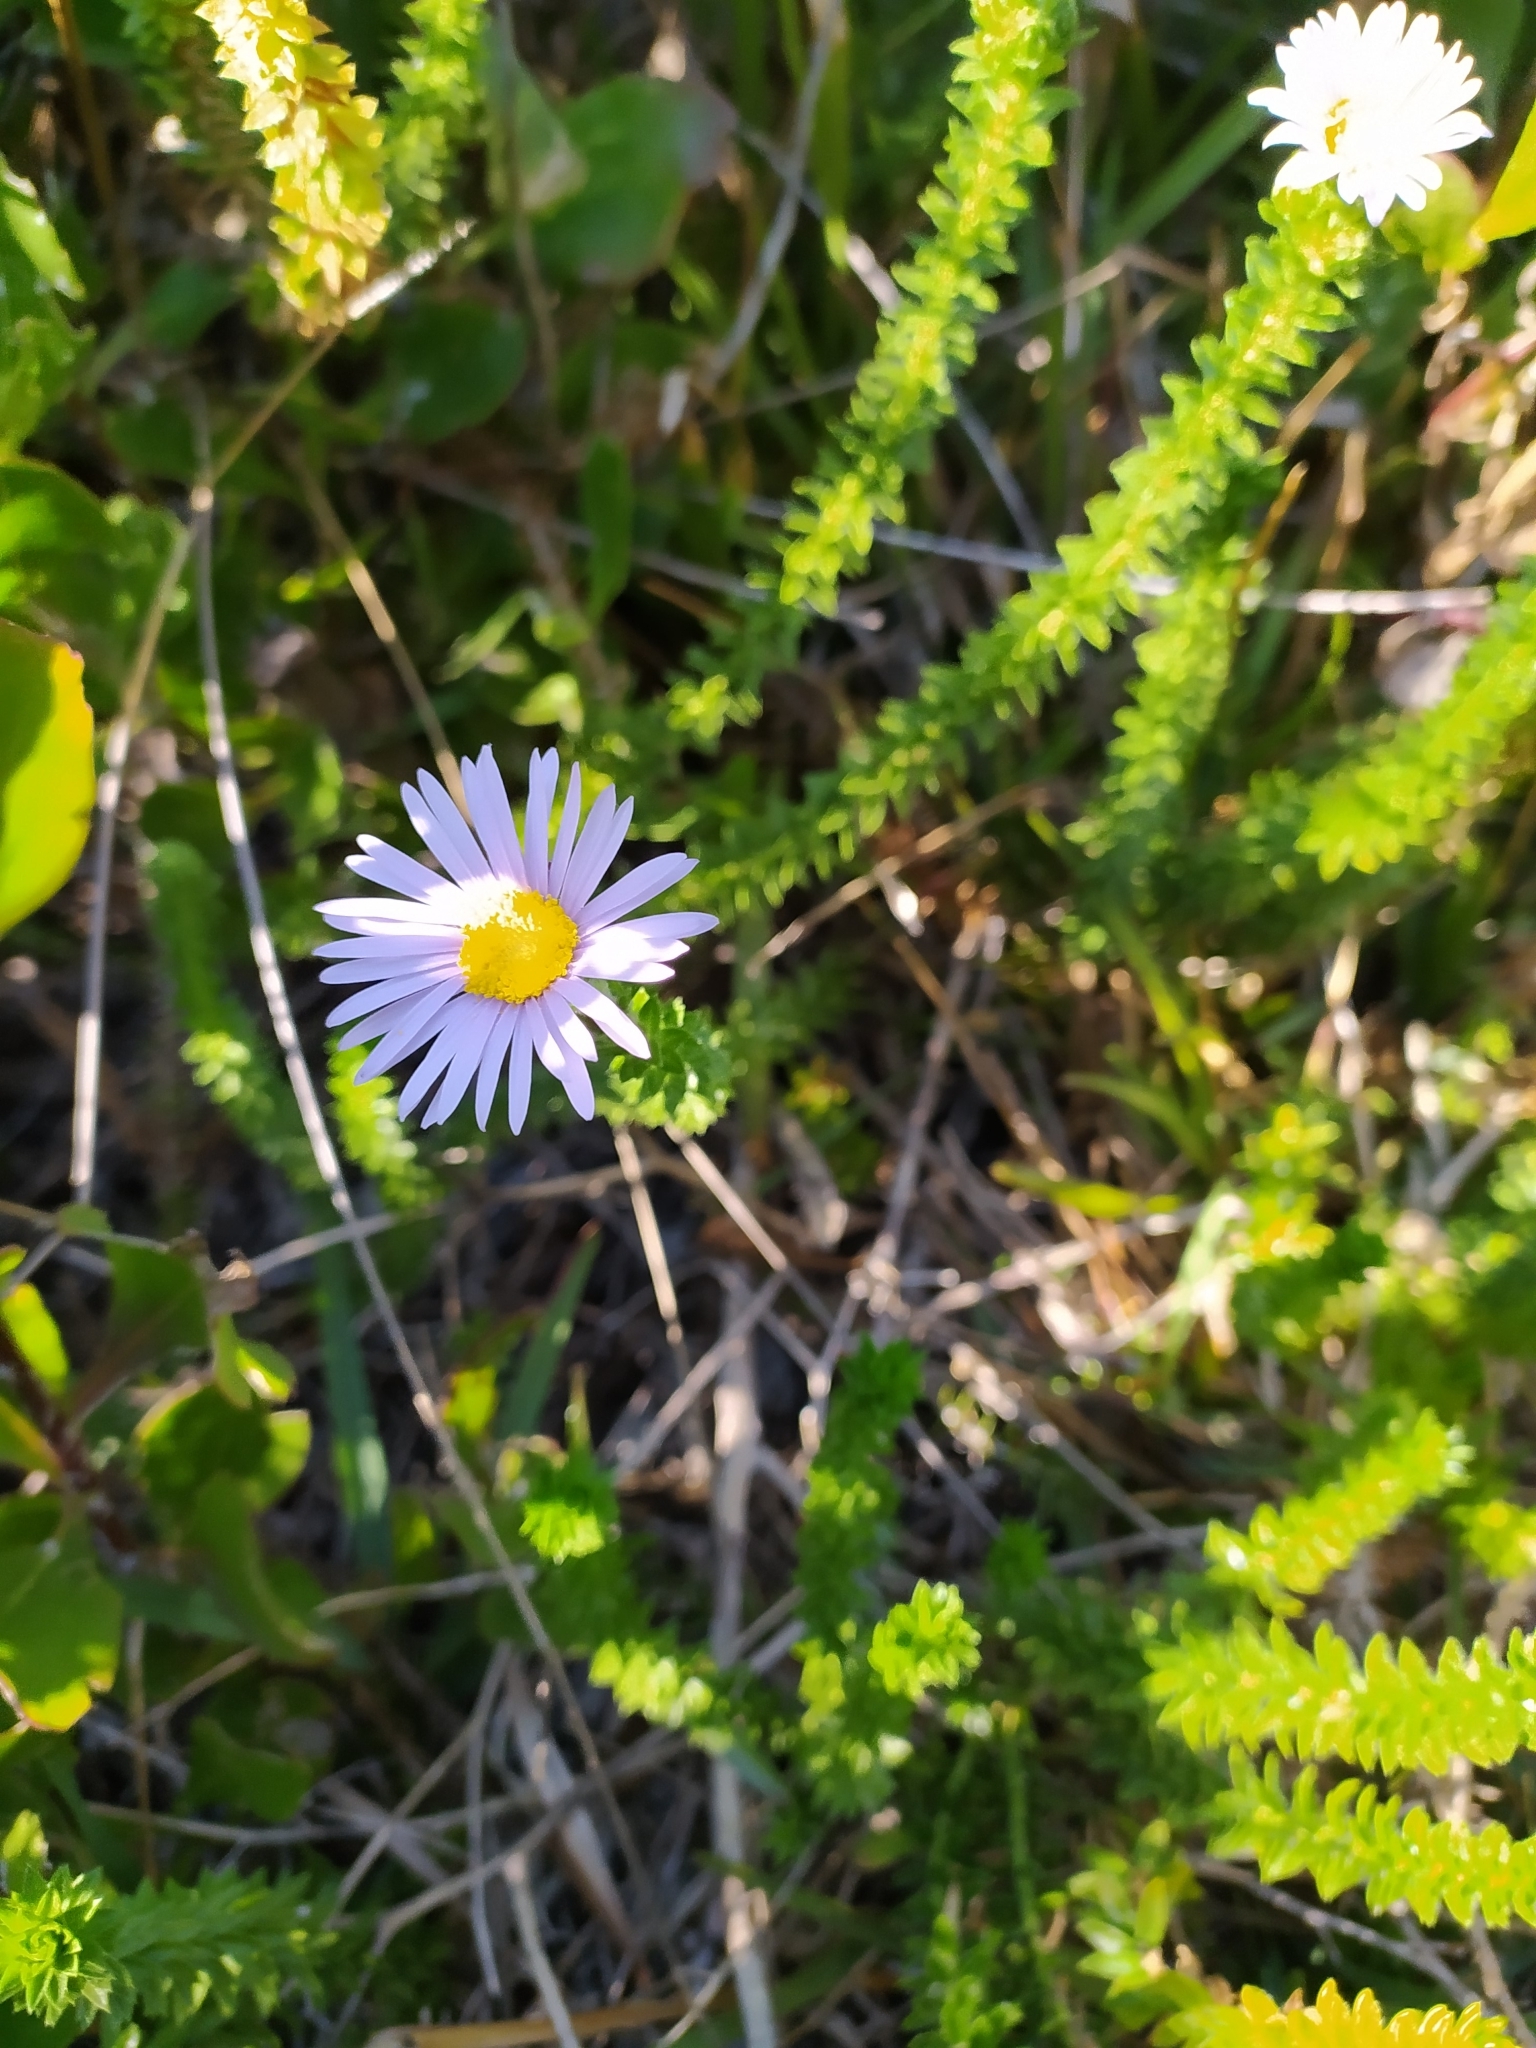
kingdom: Plantae
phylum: Tracheophyta
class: Magnoliopsida
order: Asterales
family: Asteraceae
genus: Felicia
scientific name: Felicia echinata
